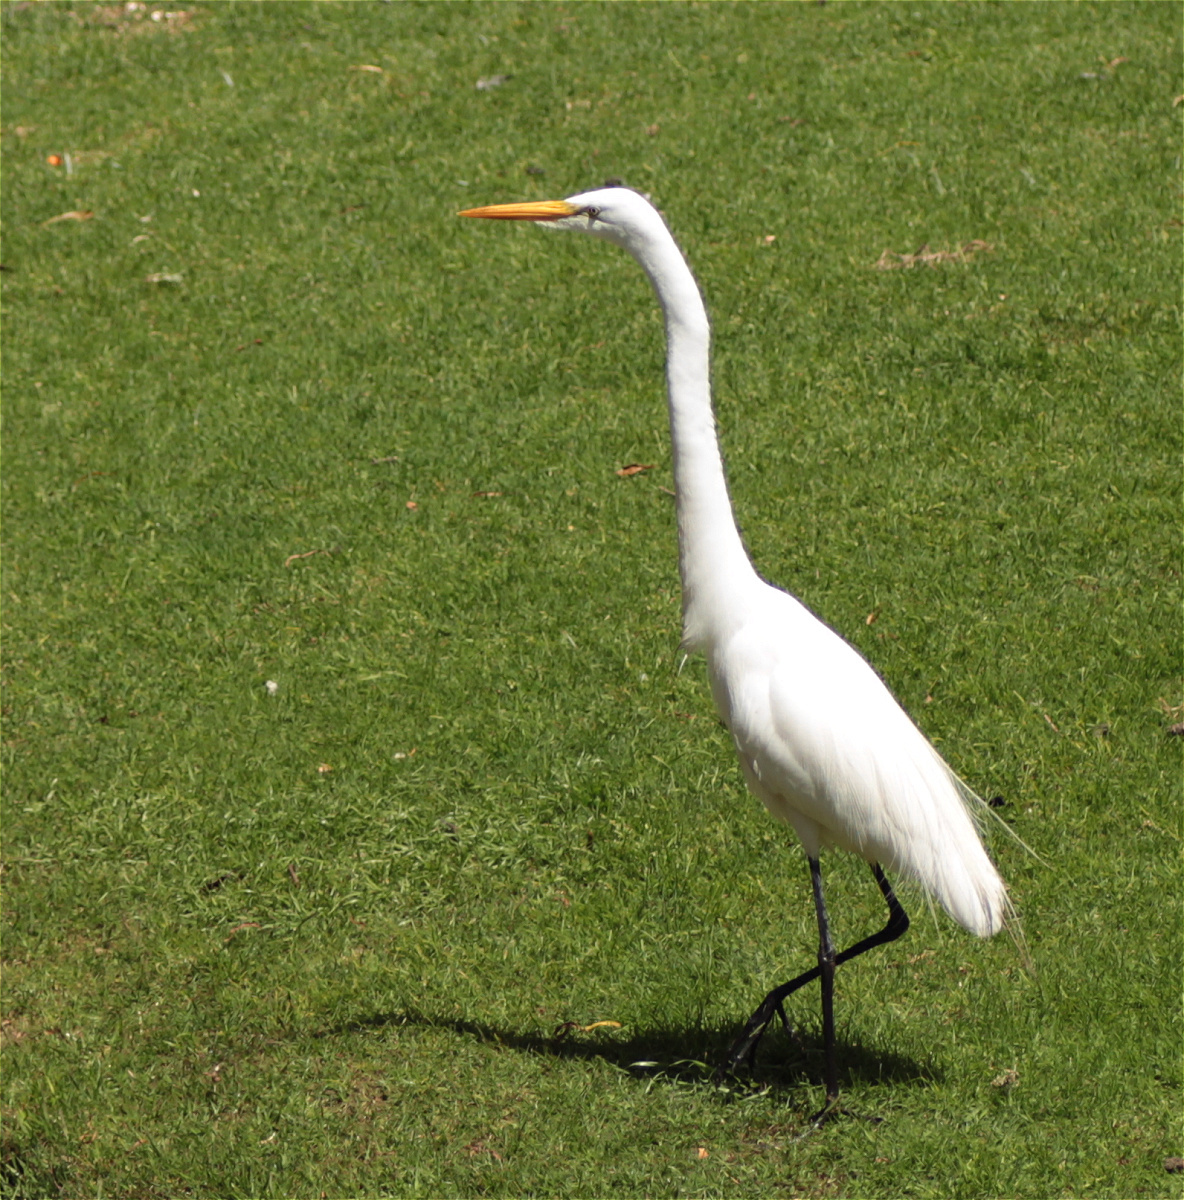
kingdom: Animalia
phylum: Chordata
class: Aves
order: Pelecaniformes
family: Ardeidae
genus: Ardea
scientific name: Ardea alba
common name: Great egret
